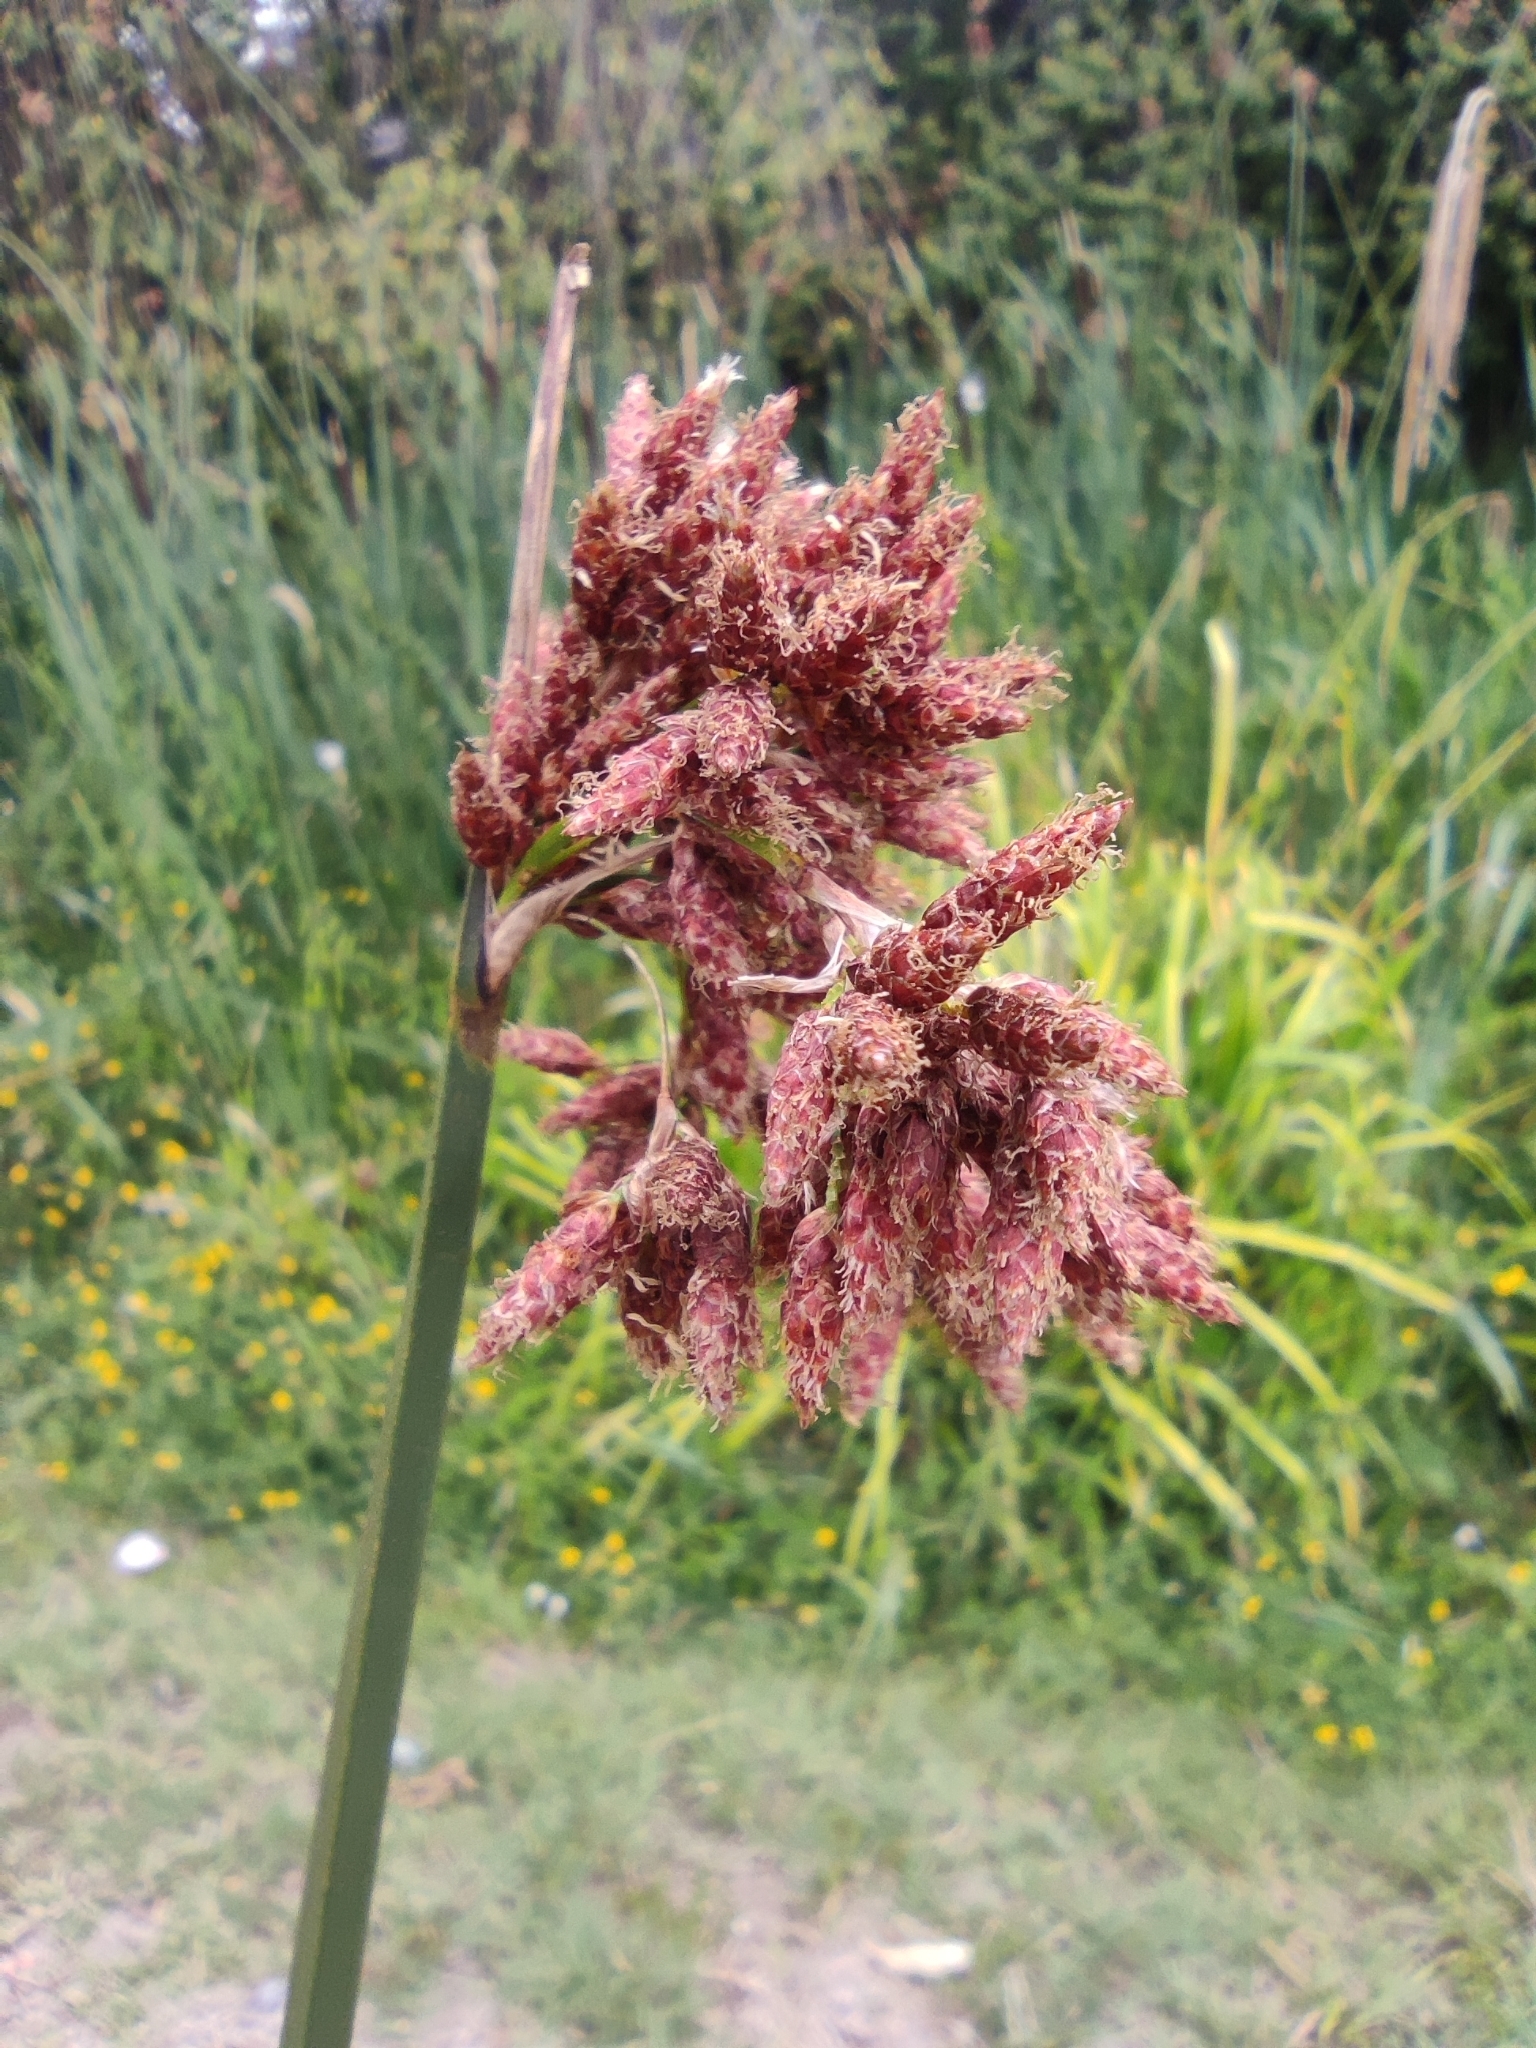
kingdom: Plantae
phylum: Tracheophyta
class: Liliopsida
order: Poales
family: Cyperaceae
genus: Schoenoplectus
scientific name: Schoenoplectus californicus
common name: California bulrush
